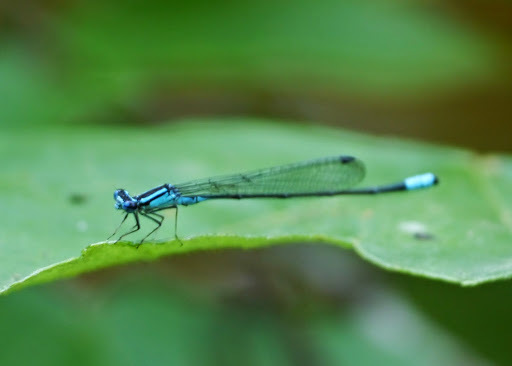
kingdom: Animalia
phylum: Arthropoda
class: Insecta
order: Odonata
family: Coenagrionidae
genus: Enallagma
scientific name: Enallagma divagans
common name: Turquoise bluet
